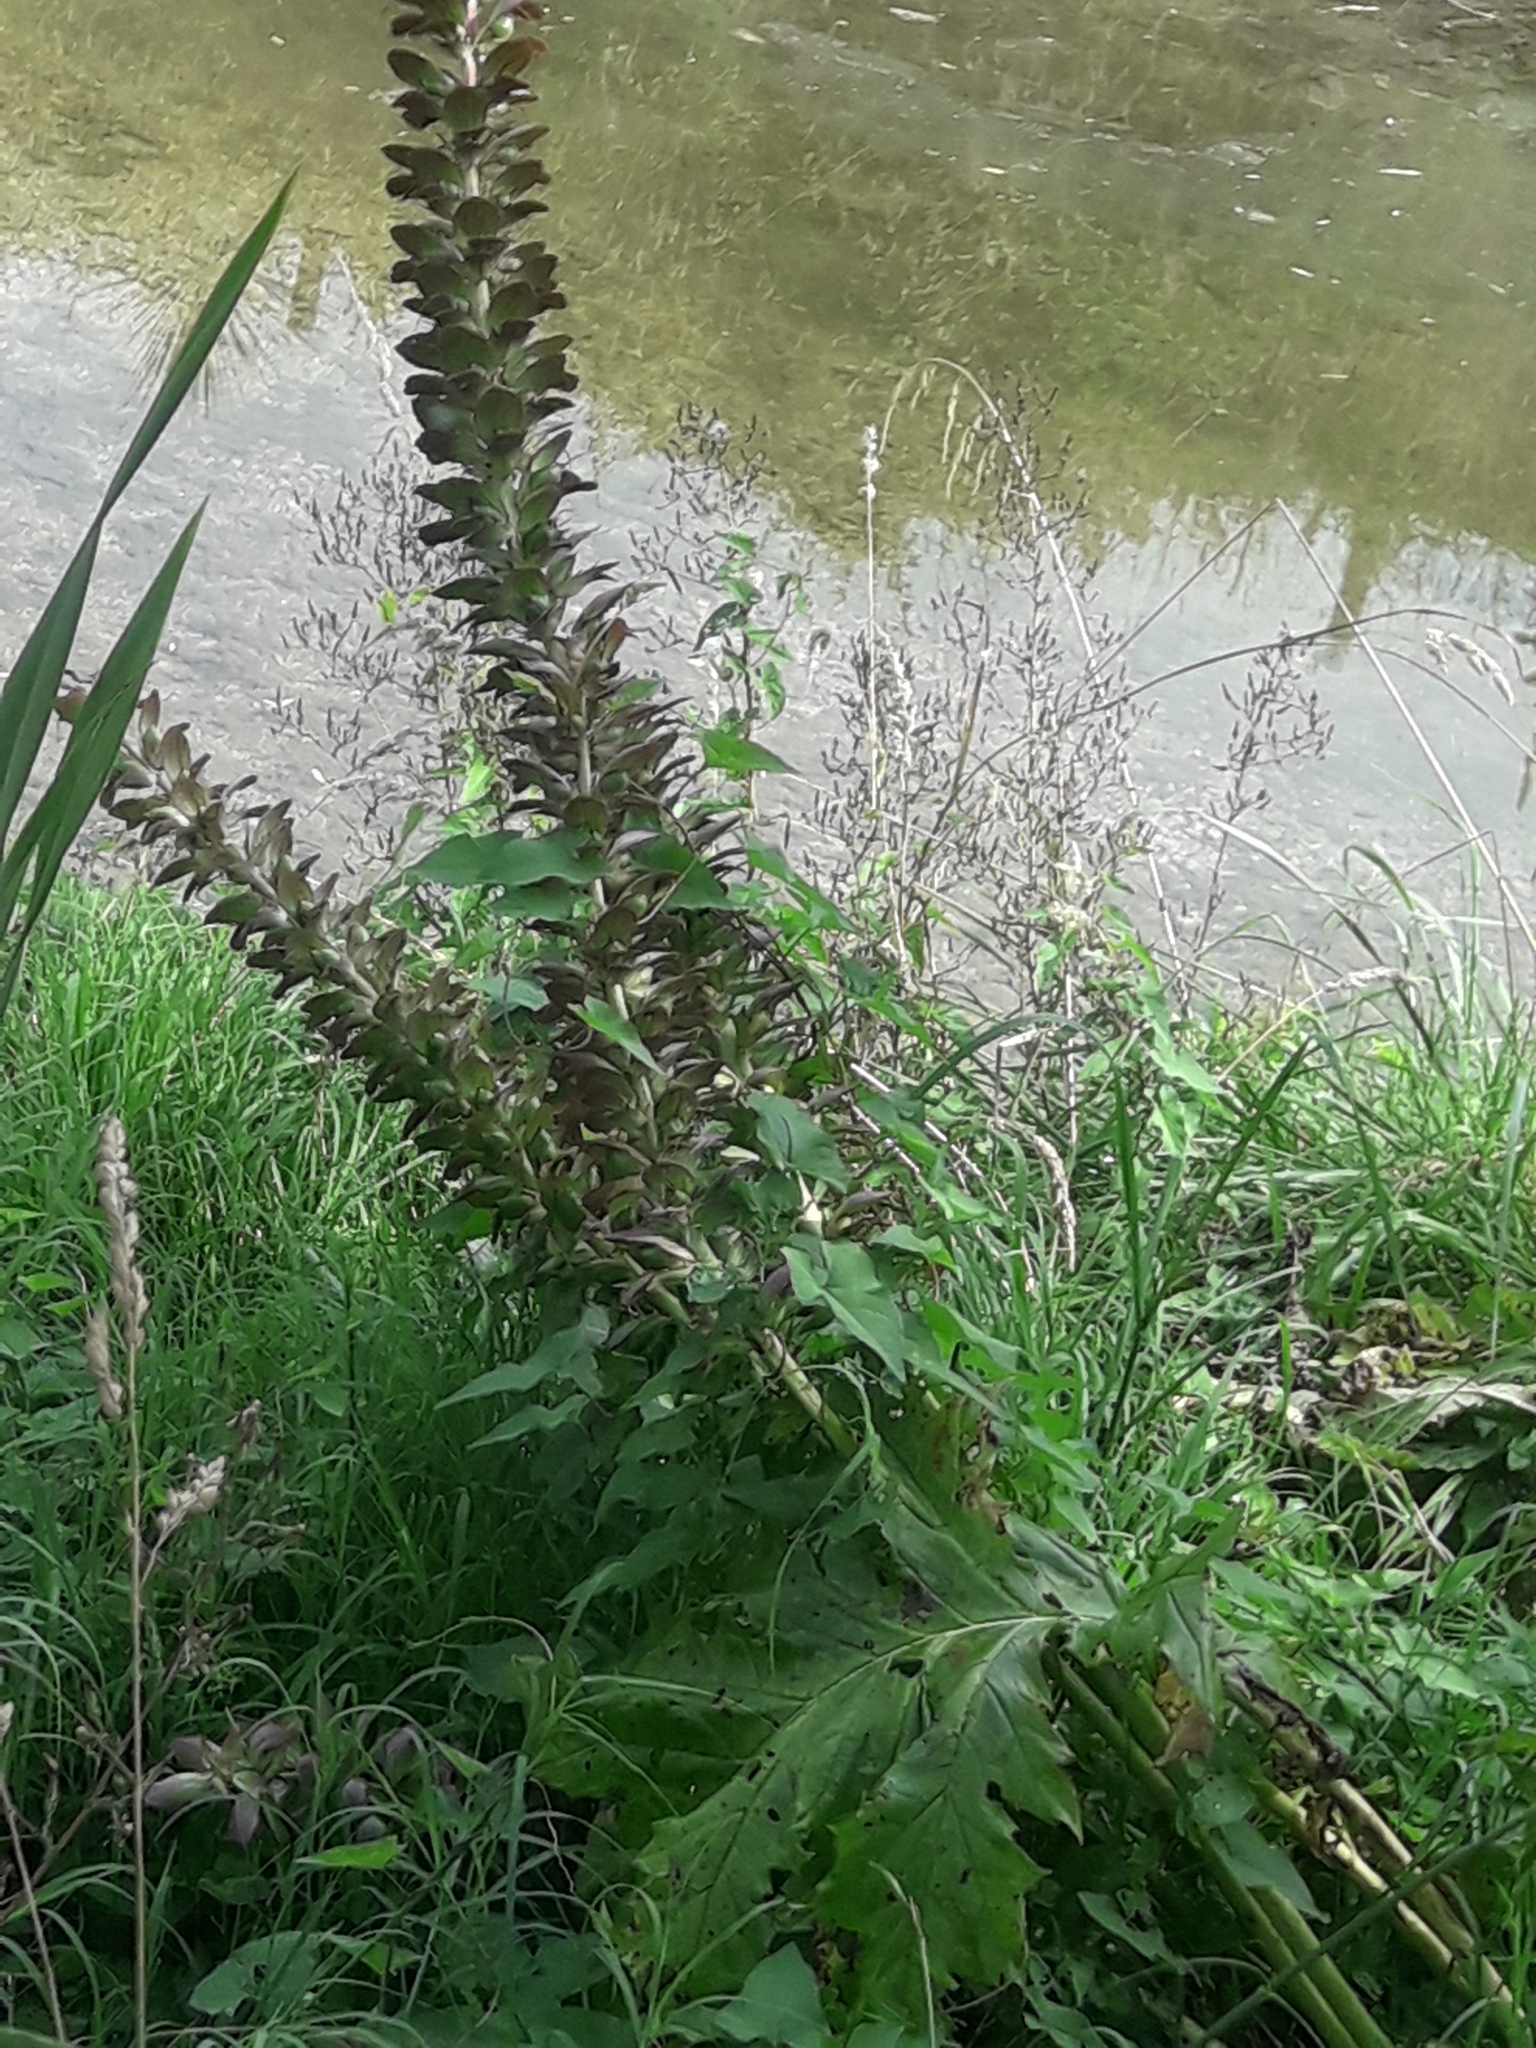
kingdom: Plantae
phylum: Tracheophyta
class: Magnoliopsida
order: Lamiales
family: Acanthaceae
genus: Acanthus
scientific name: Acanthus mollis
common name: Bear's-breech
